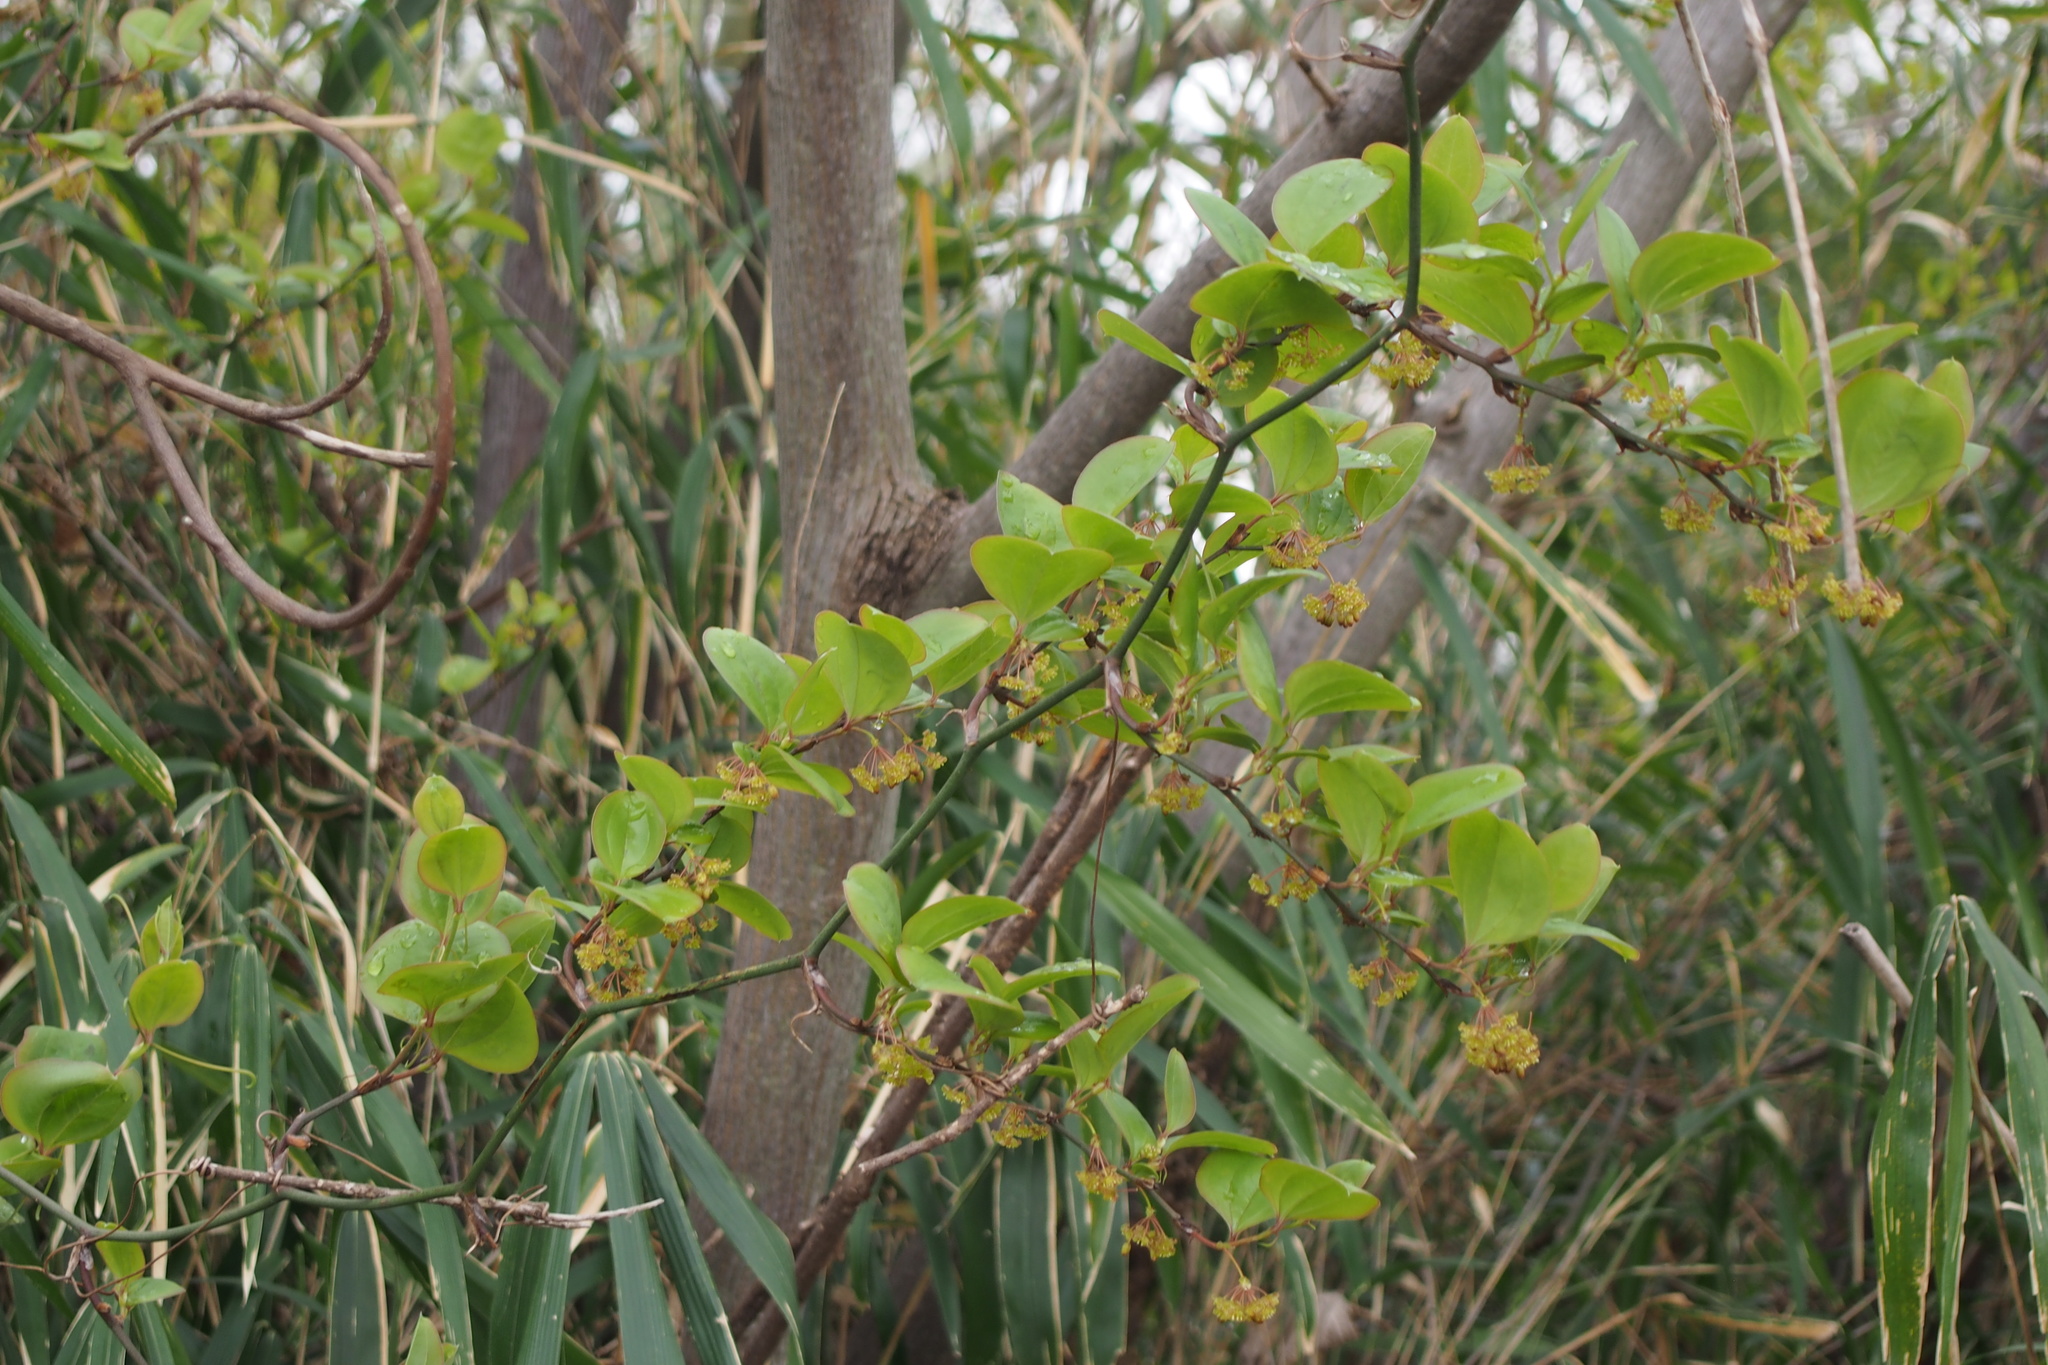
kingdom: Plantae
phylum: Tracheophyta
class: Liliopsida
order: Liliales
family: Smilacaceae
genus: Smilax
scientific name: Smilax china
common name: Chinaroot
